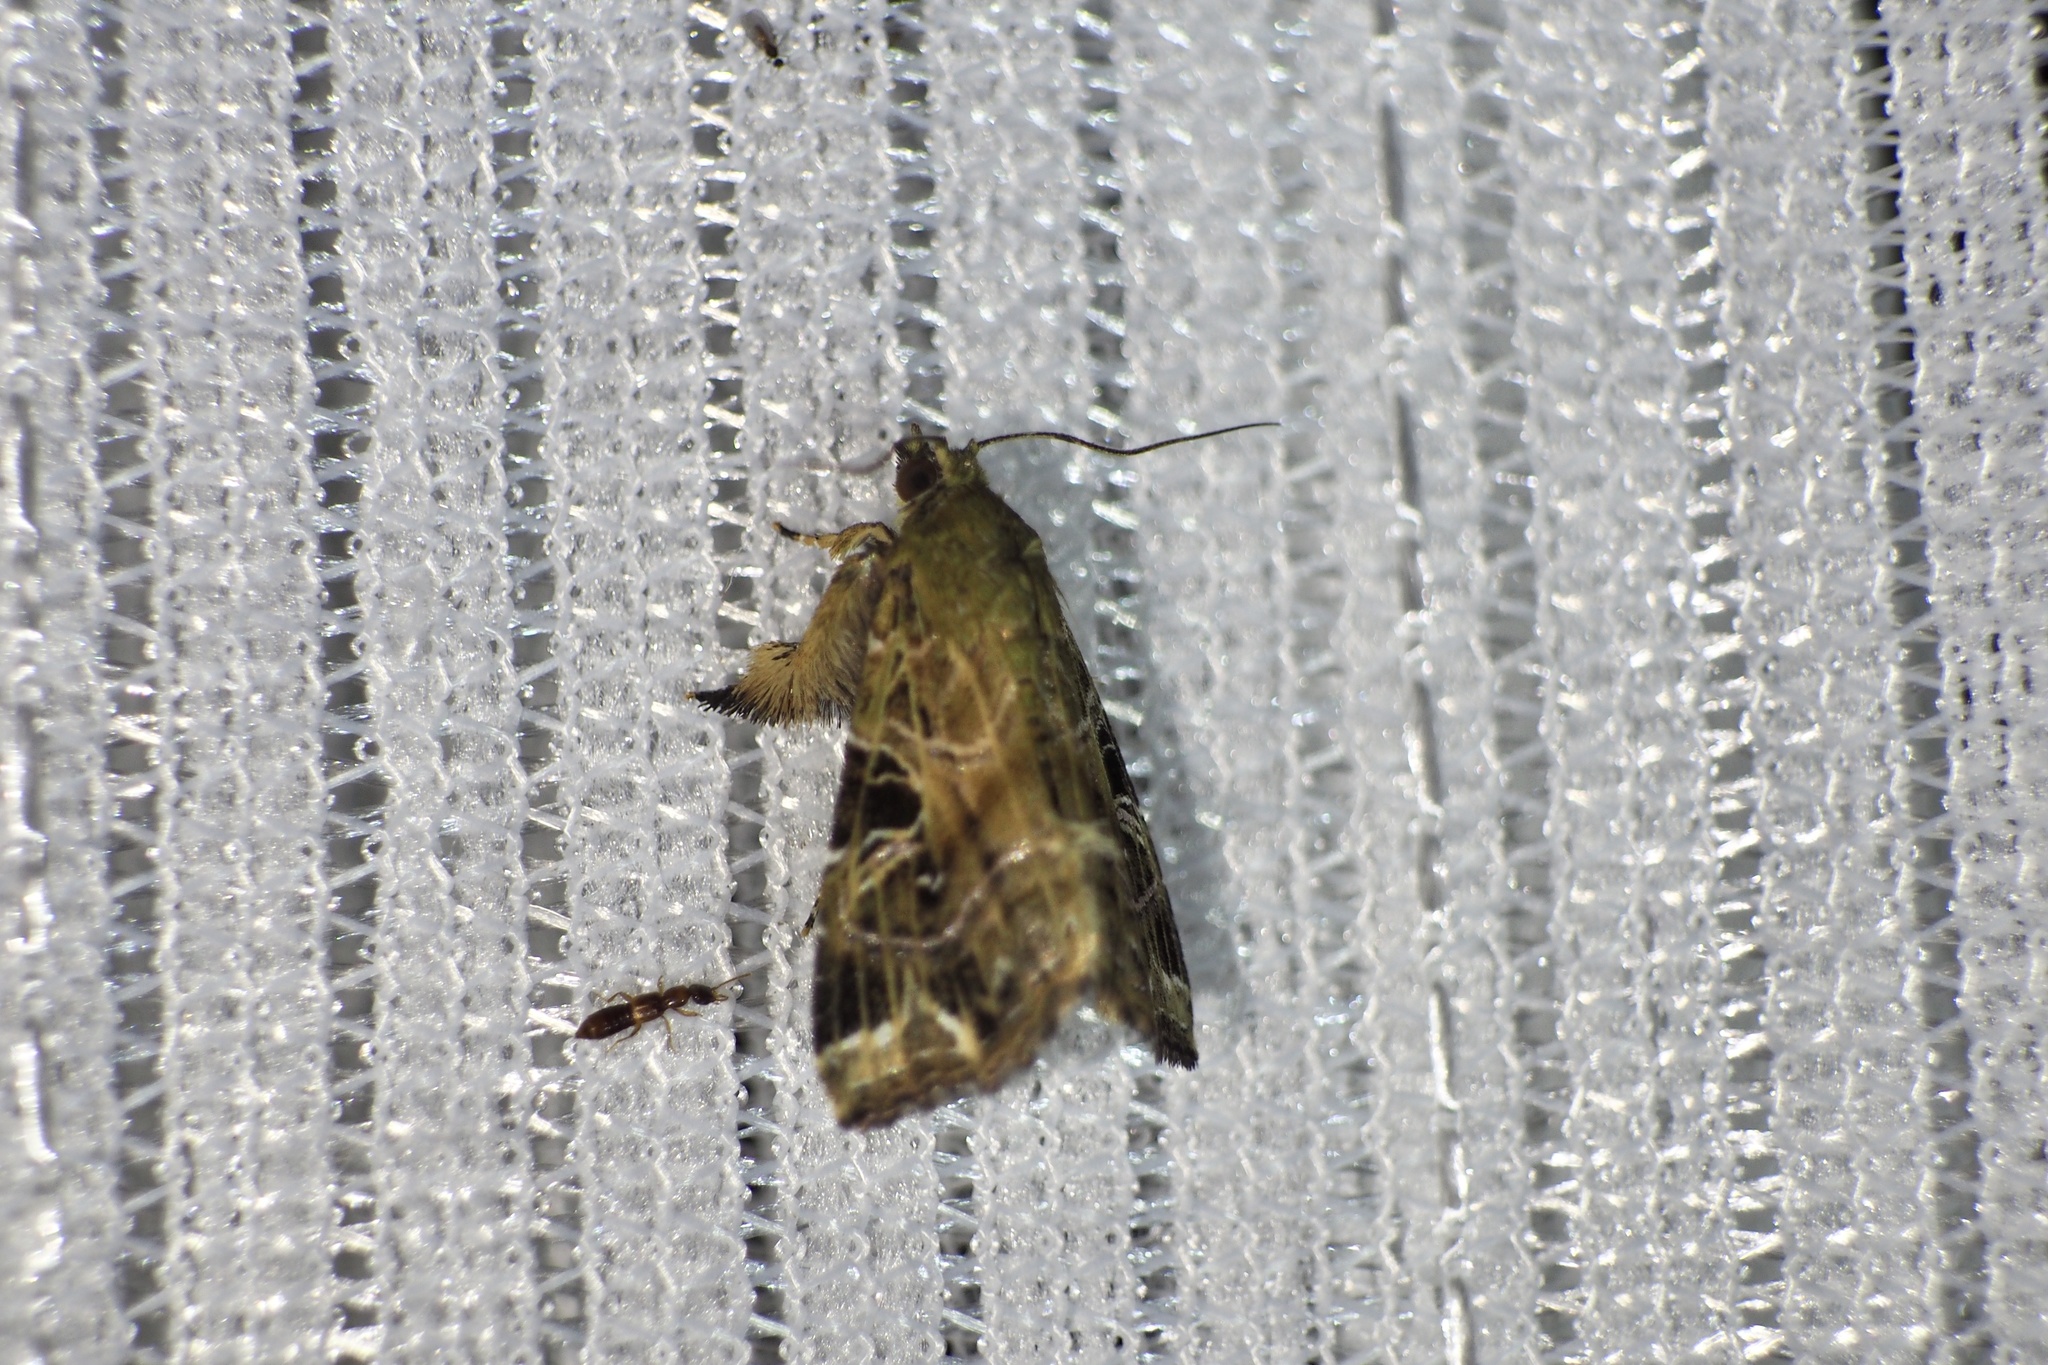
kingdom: Animalia
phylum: Arthropoda
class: Insecta
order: Lepidoptera
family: Noctuidae
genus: Callopistria
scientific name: Callopistria pulchrilinea
